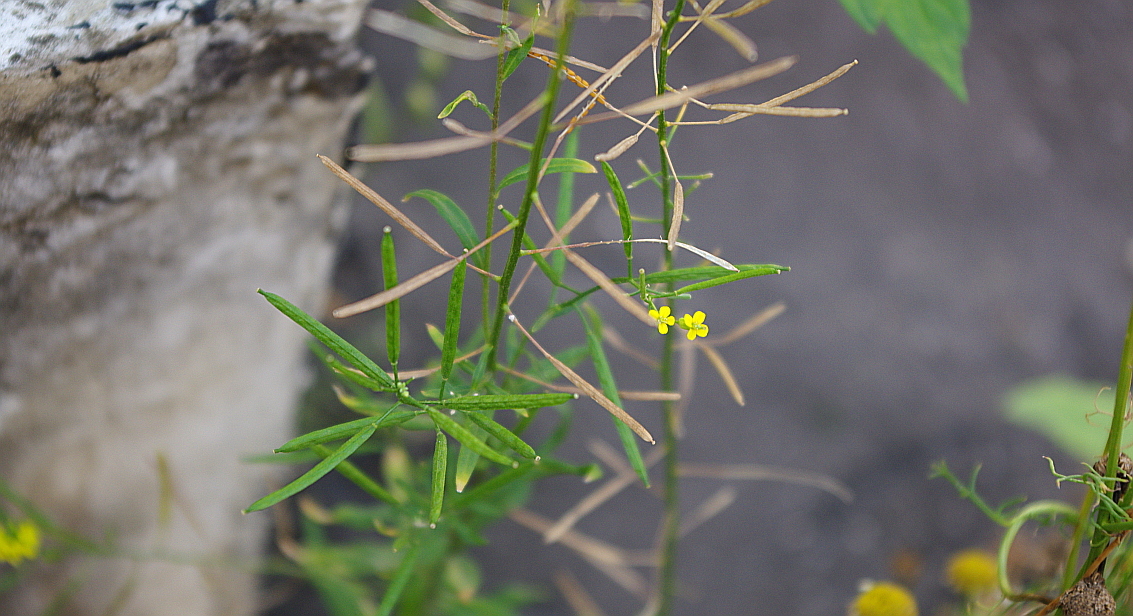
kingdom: Plantae
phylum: Tracheophyta
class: Magnoliopsida
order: Brassicales
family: Brassicaceae
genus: Erysimum
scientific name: Erysimum cheiranthoides
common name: Treacle mustard
